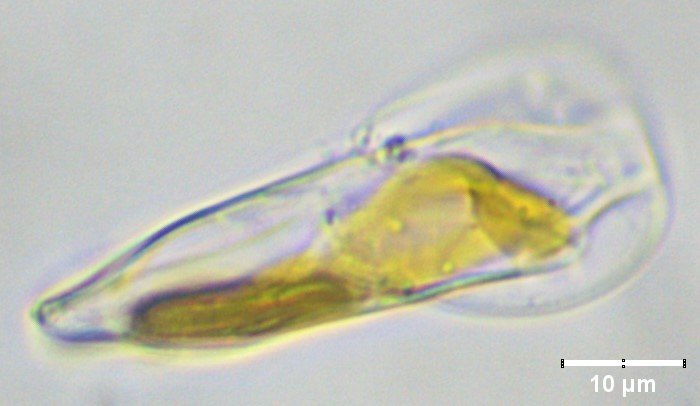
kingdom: Chromista
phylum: Ochrophyta
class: Bacillariophyceae
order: Surirellales
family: Entomoneidaceae
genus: Entomoneis
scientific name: Entomoneis paludosa
